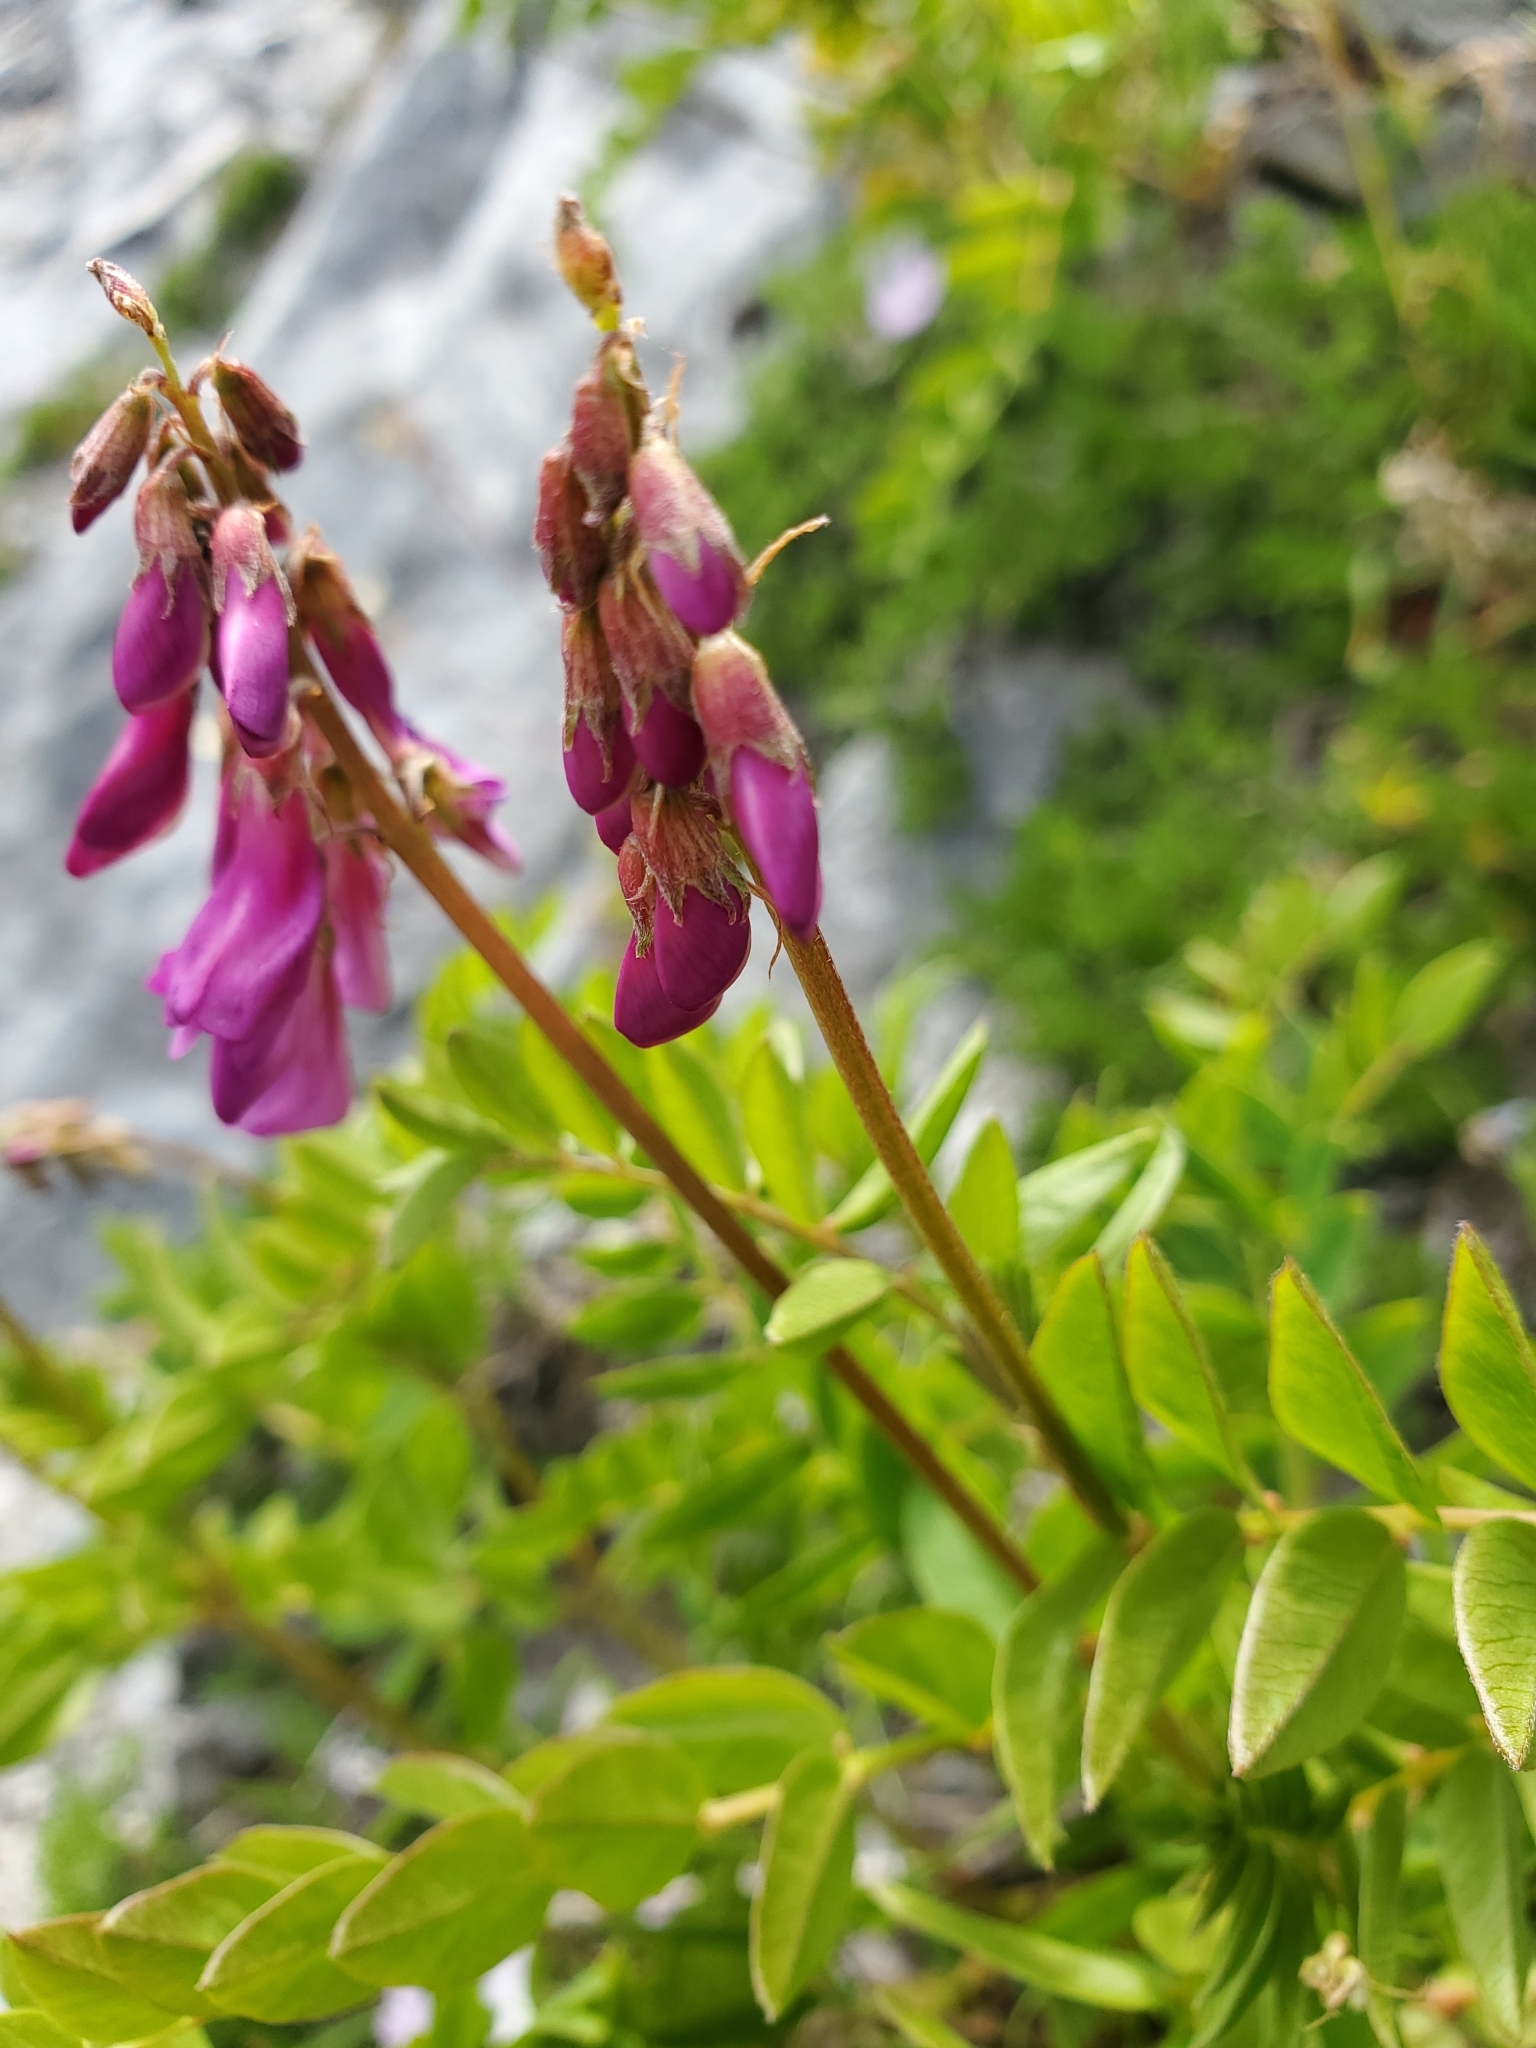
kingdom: Plantae
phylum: Tracheophyta
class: Magnoliopsida
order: Fabales
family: Fabaceae
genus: Hedysarum
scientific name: Hedysarum occidentale
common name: Western hedysarum
